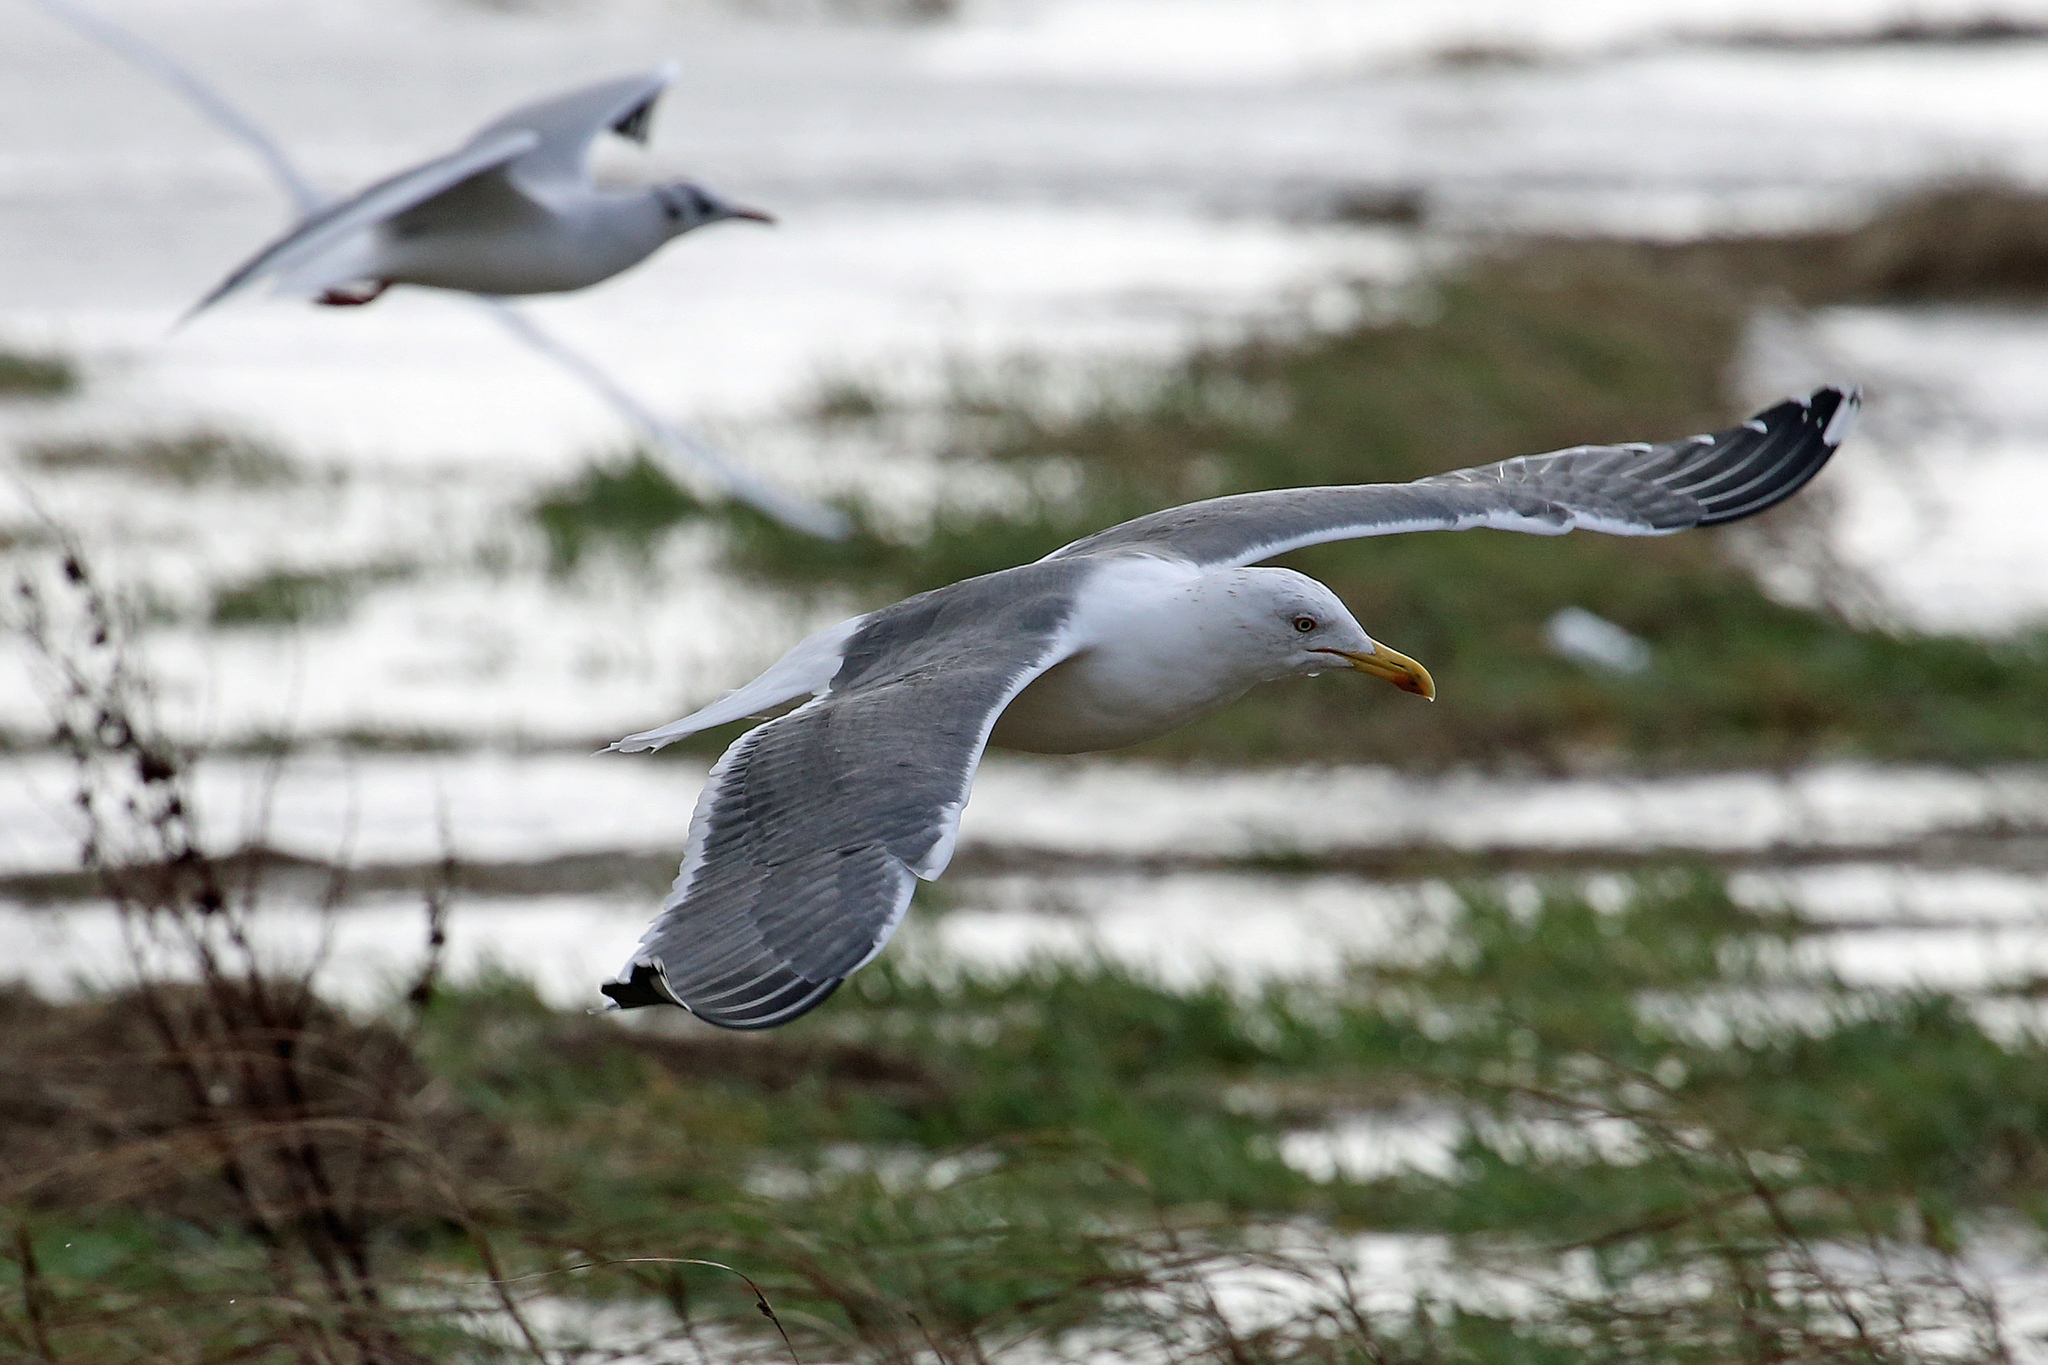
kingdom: Animalia
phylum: Chordata
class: Aves
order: Charadriiformes
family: Laridae
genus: Larus
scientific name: Larus fuscus
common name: Lesser black-backed gull
